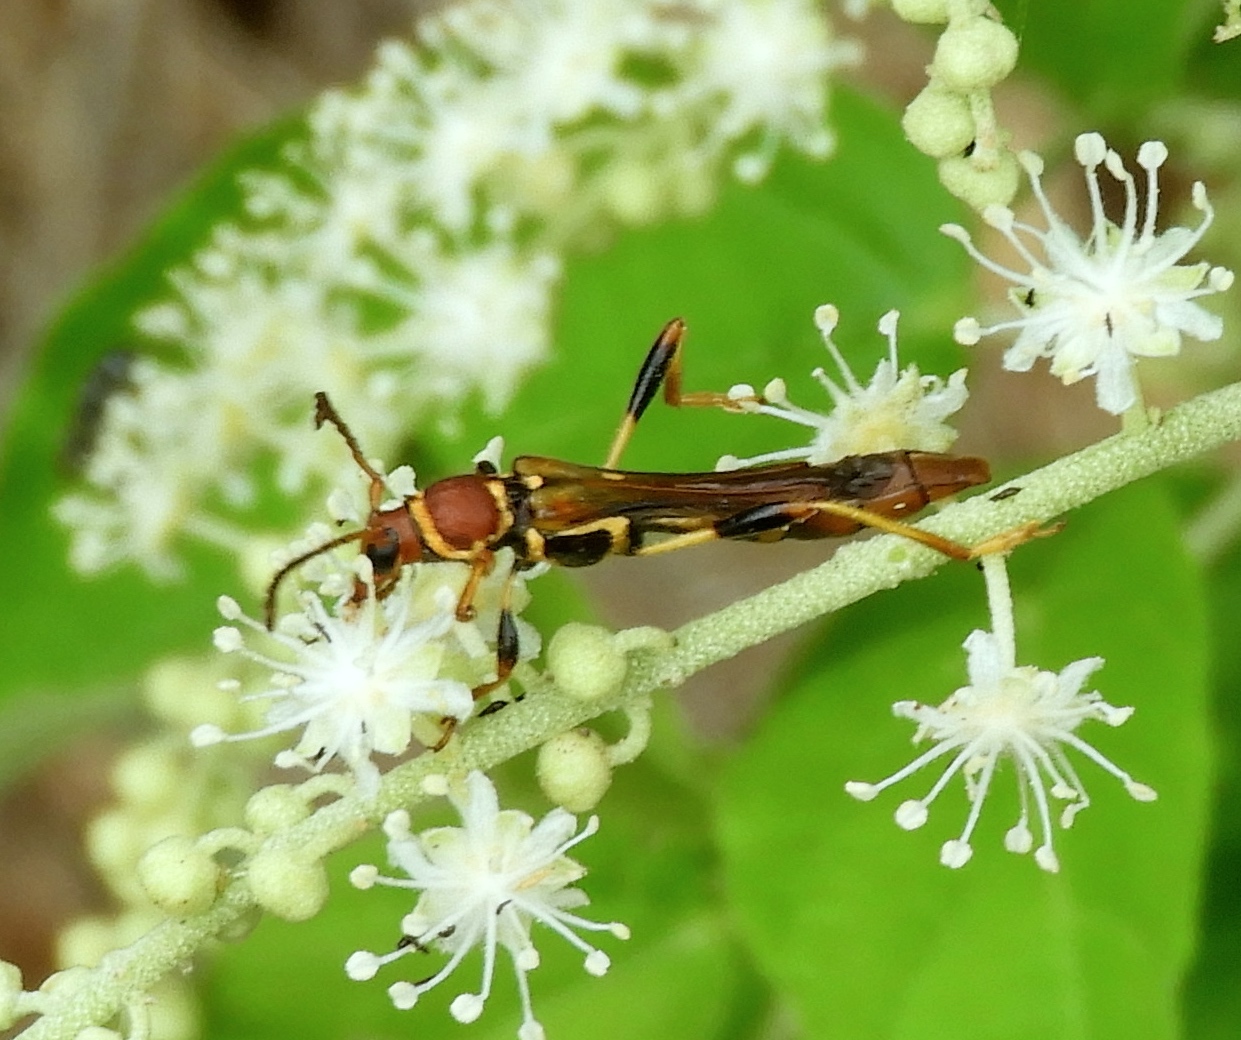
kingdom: Animalia
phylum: Arthropoda
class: Insecta
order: Coleoptera
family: Cerambycidae
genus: Odontocera
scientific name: Odontocera aurocincta
